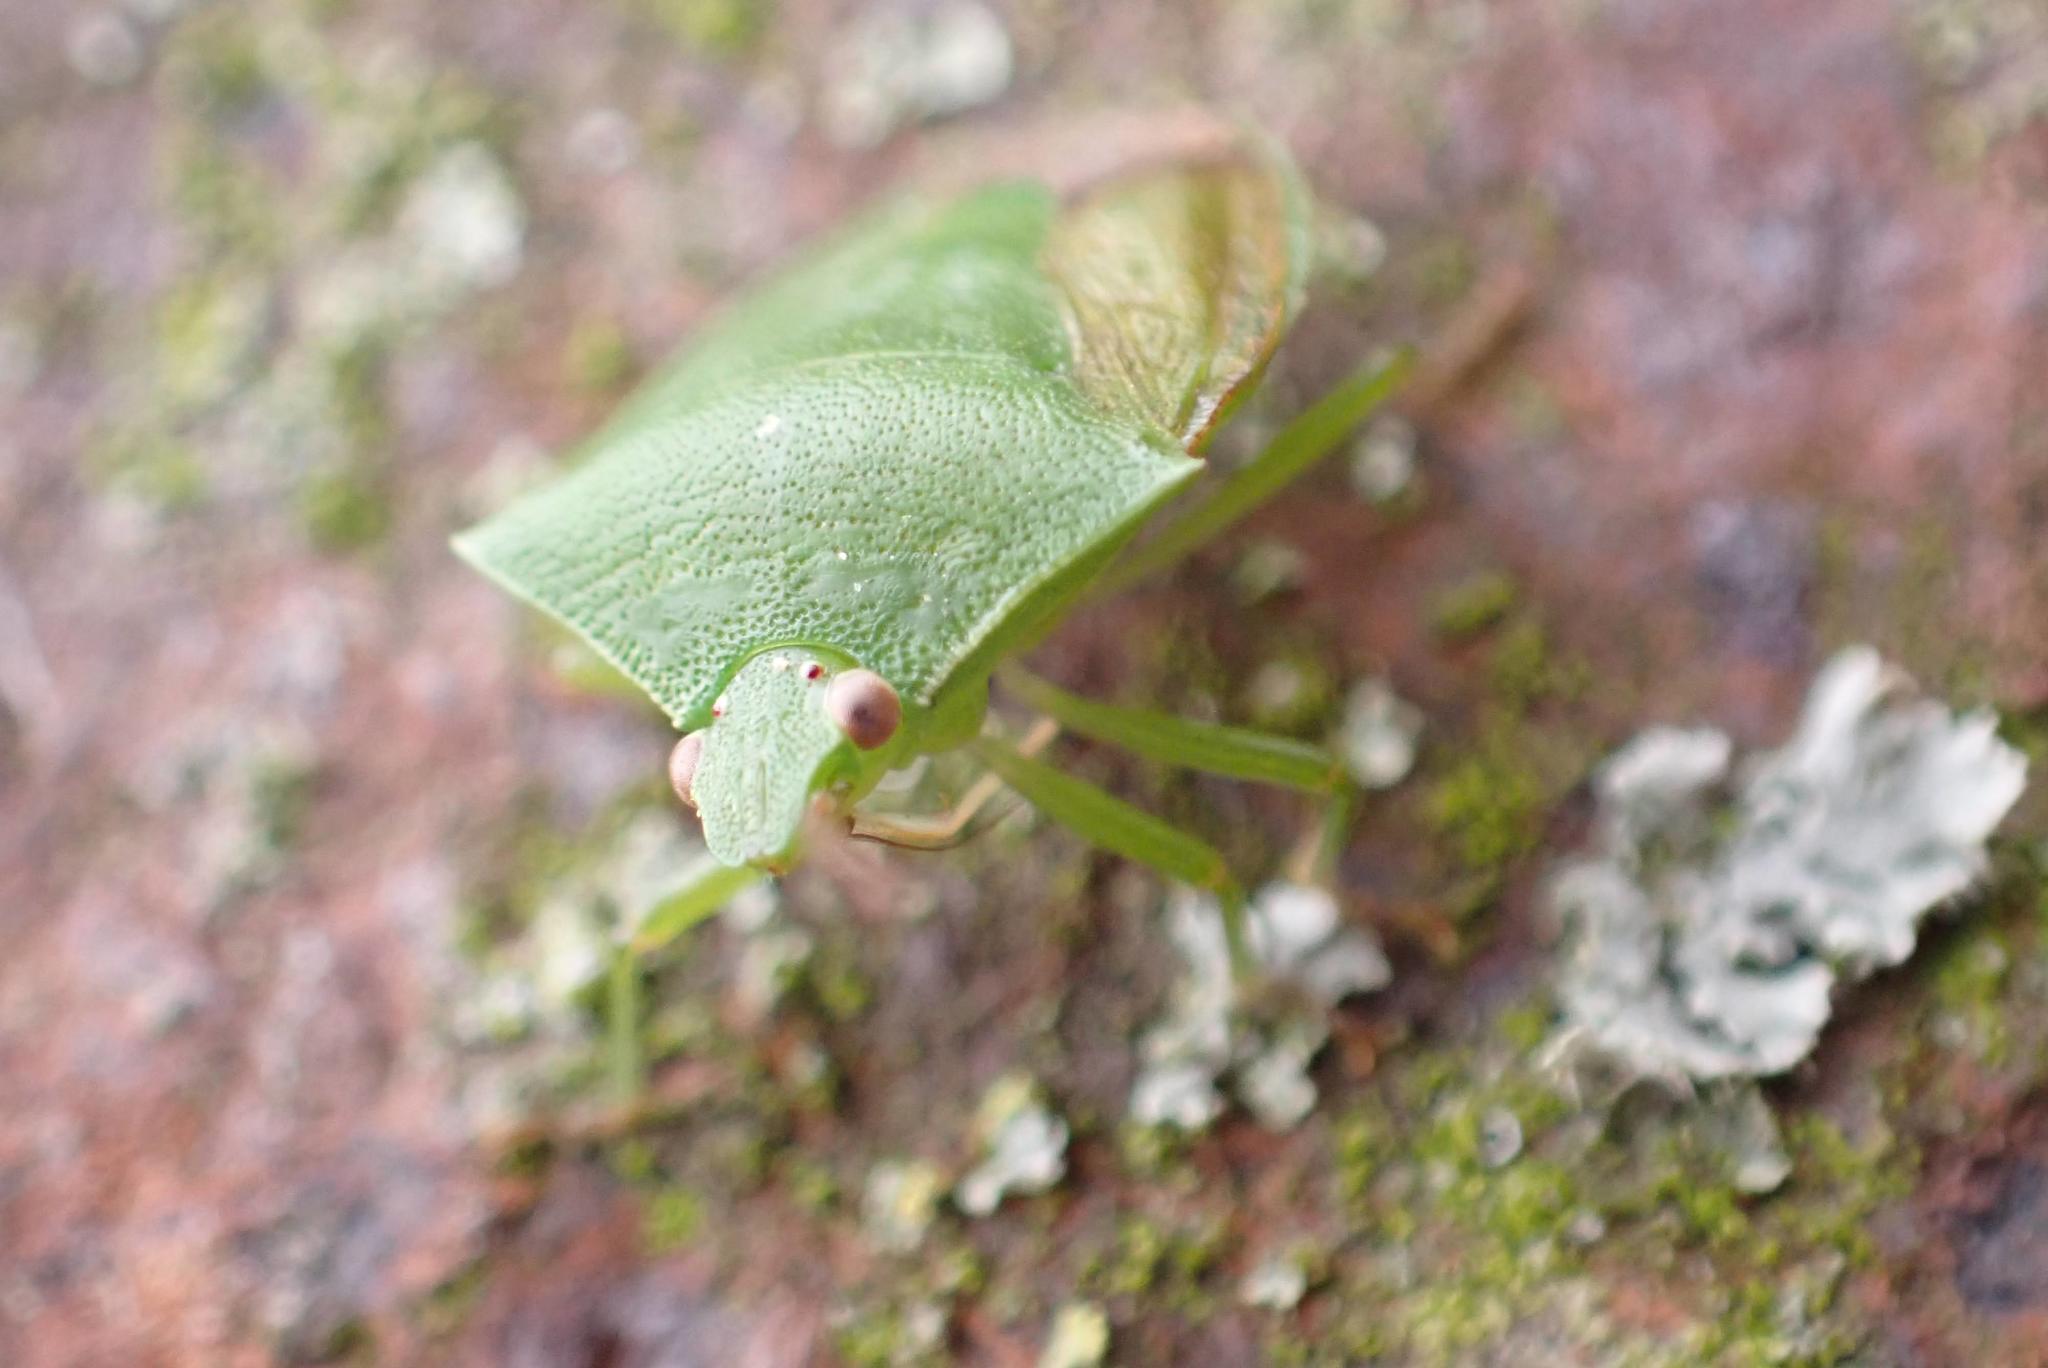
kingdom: Animalia
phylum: Arthropoda
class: Insecta
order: Hemiptera
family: Pentatomidae
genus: Cuspicona
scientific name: Cuspicona simplex
